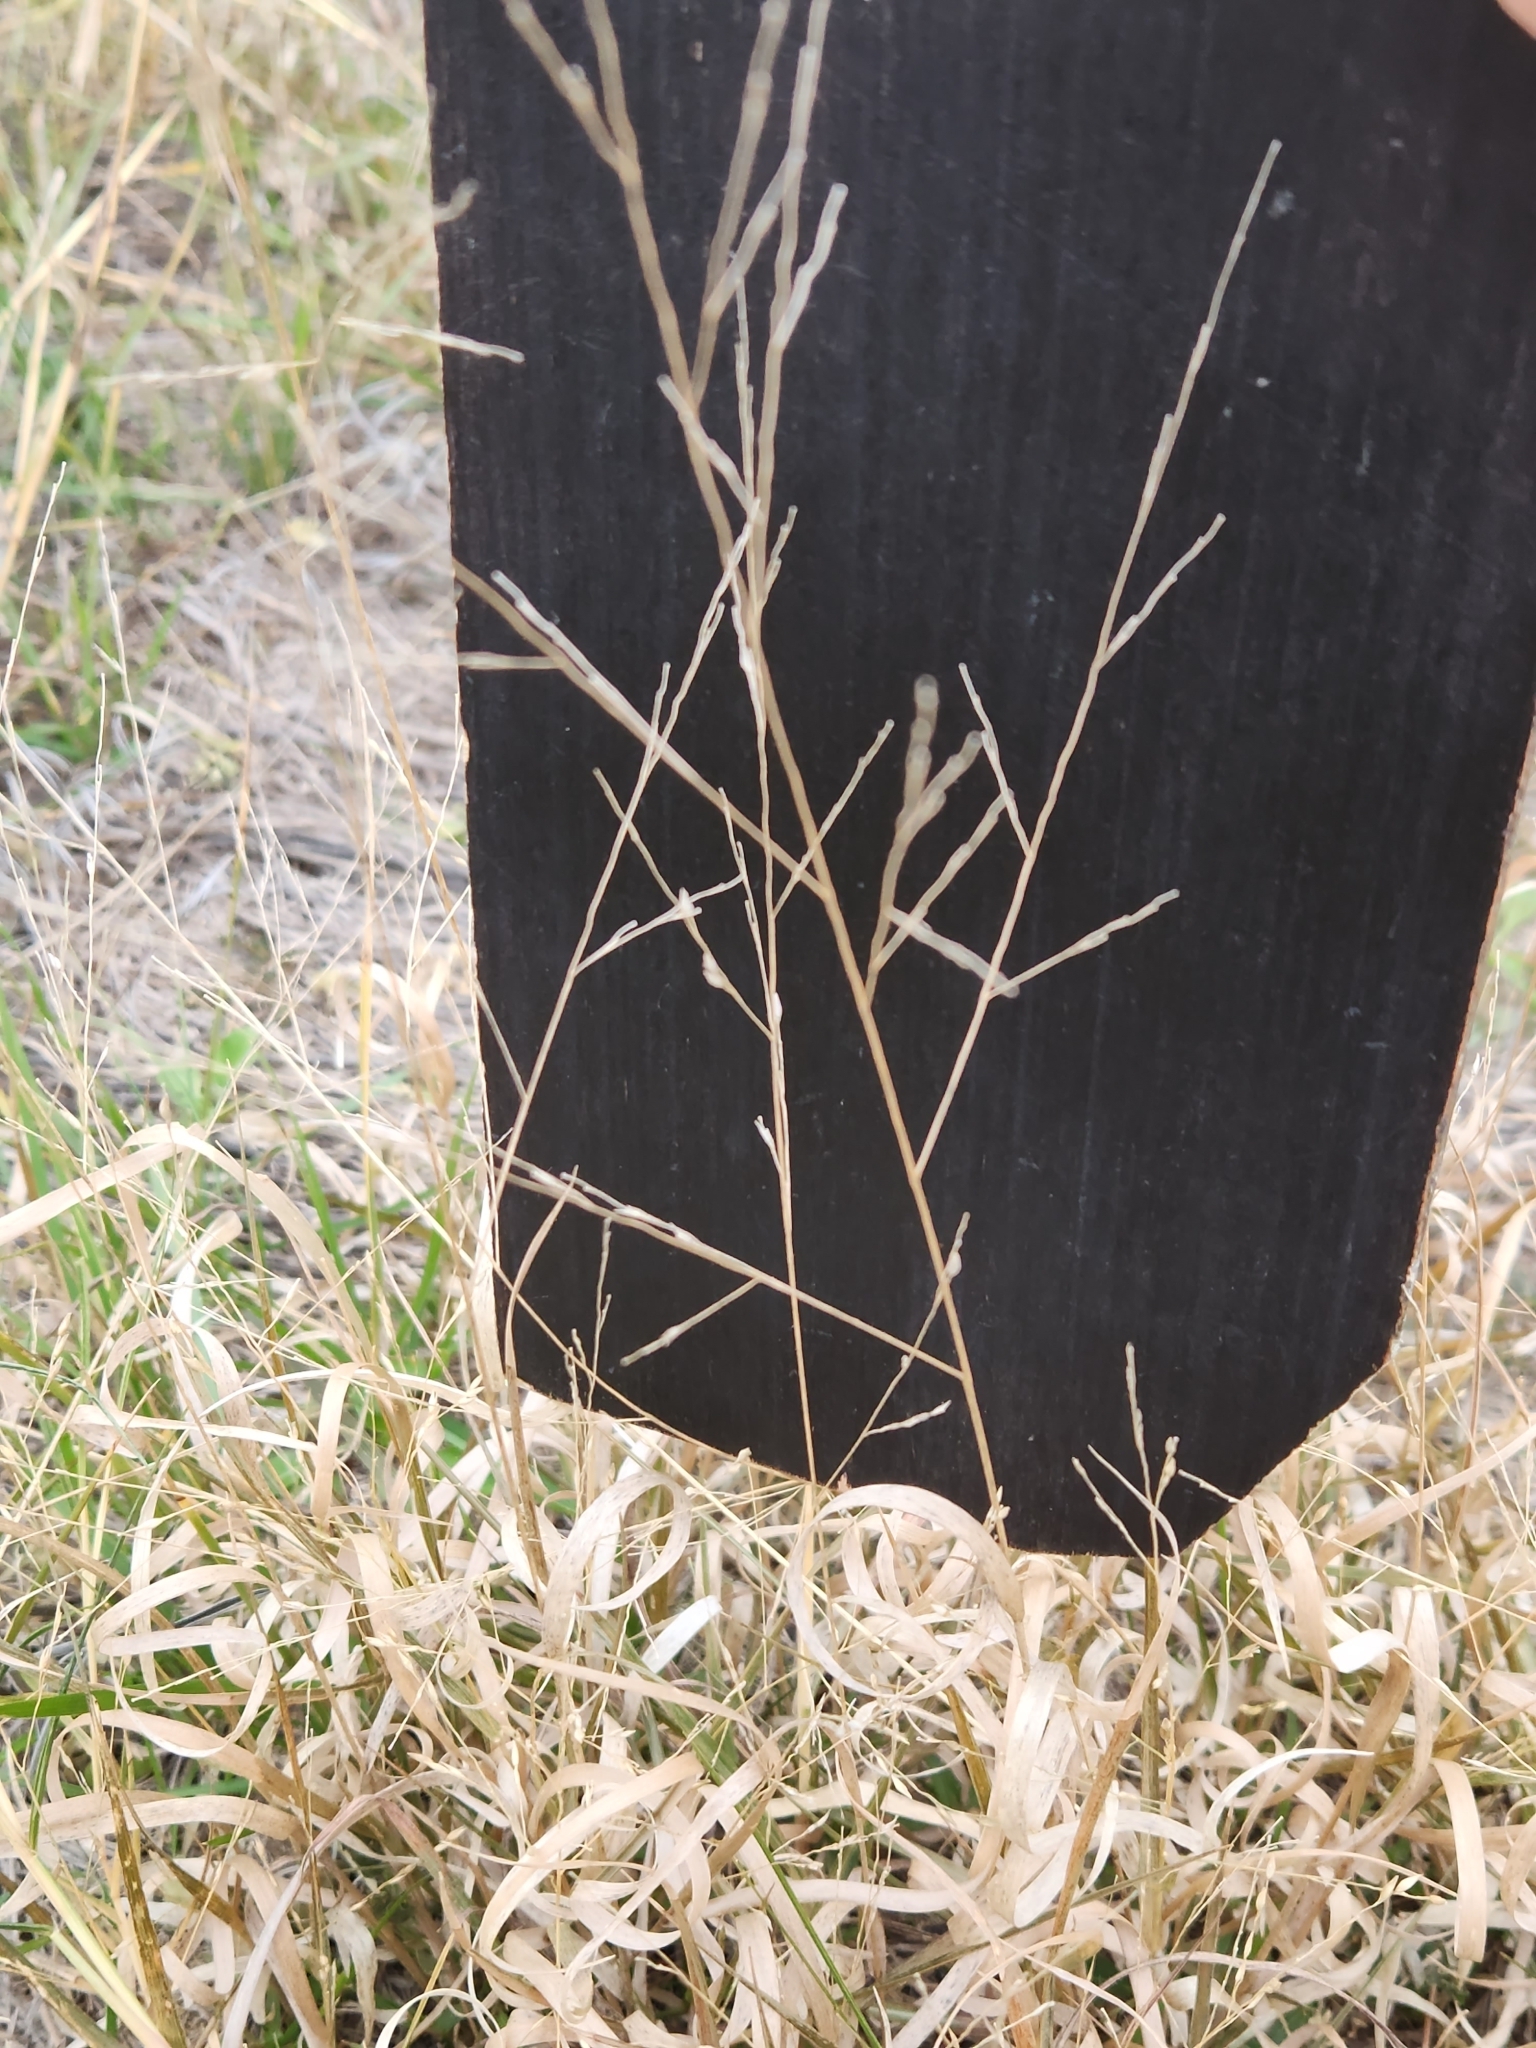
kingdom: Plantae
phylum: Tracheophyta
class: Liliopsida
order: Poales
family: Poaceae
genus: Panicum
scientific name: Panicum hallii
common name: Hall's witchgrass
